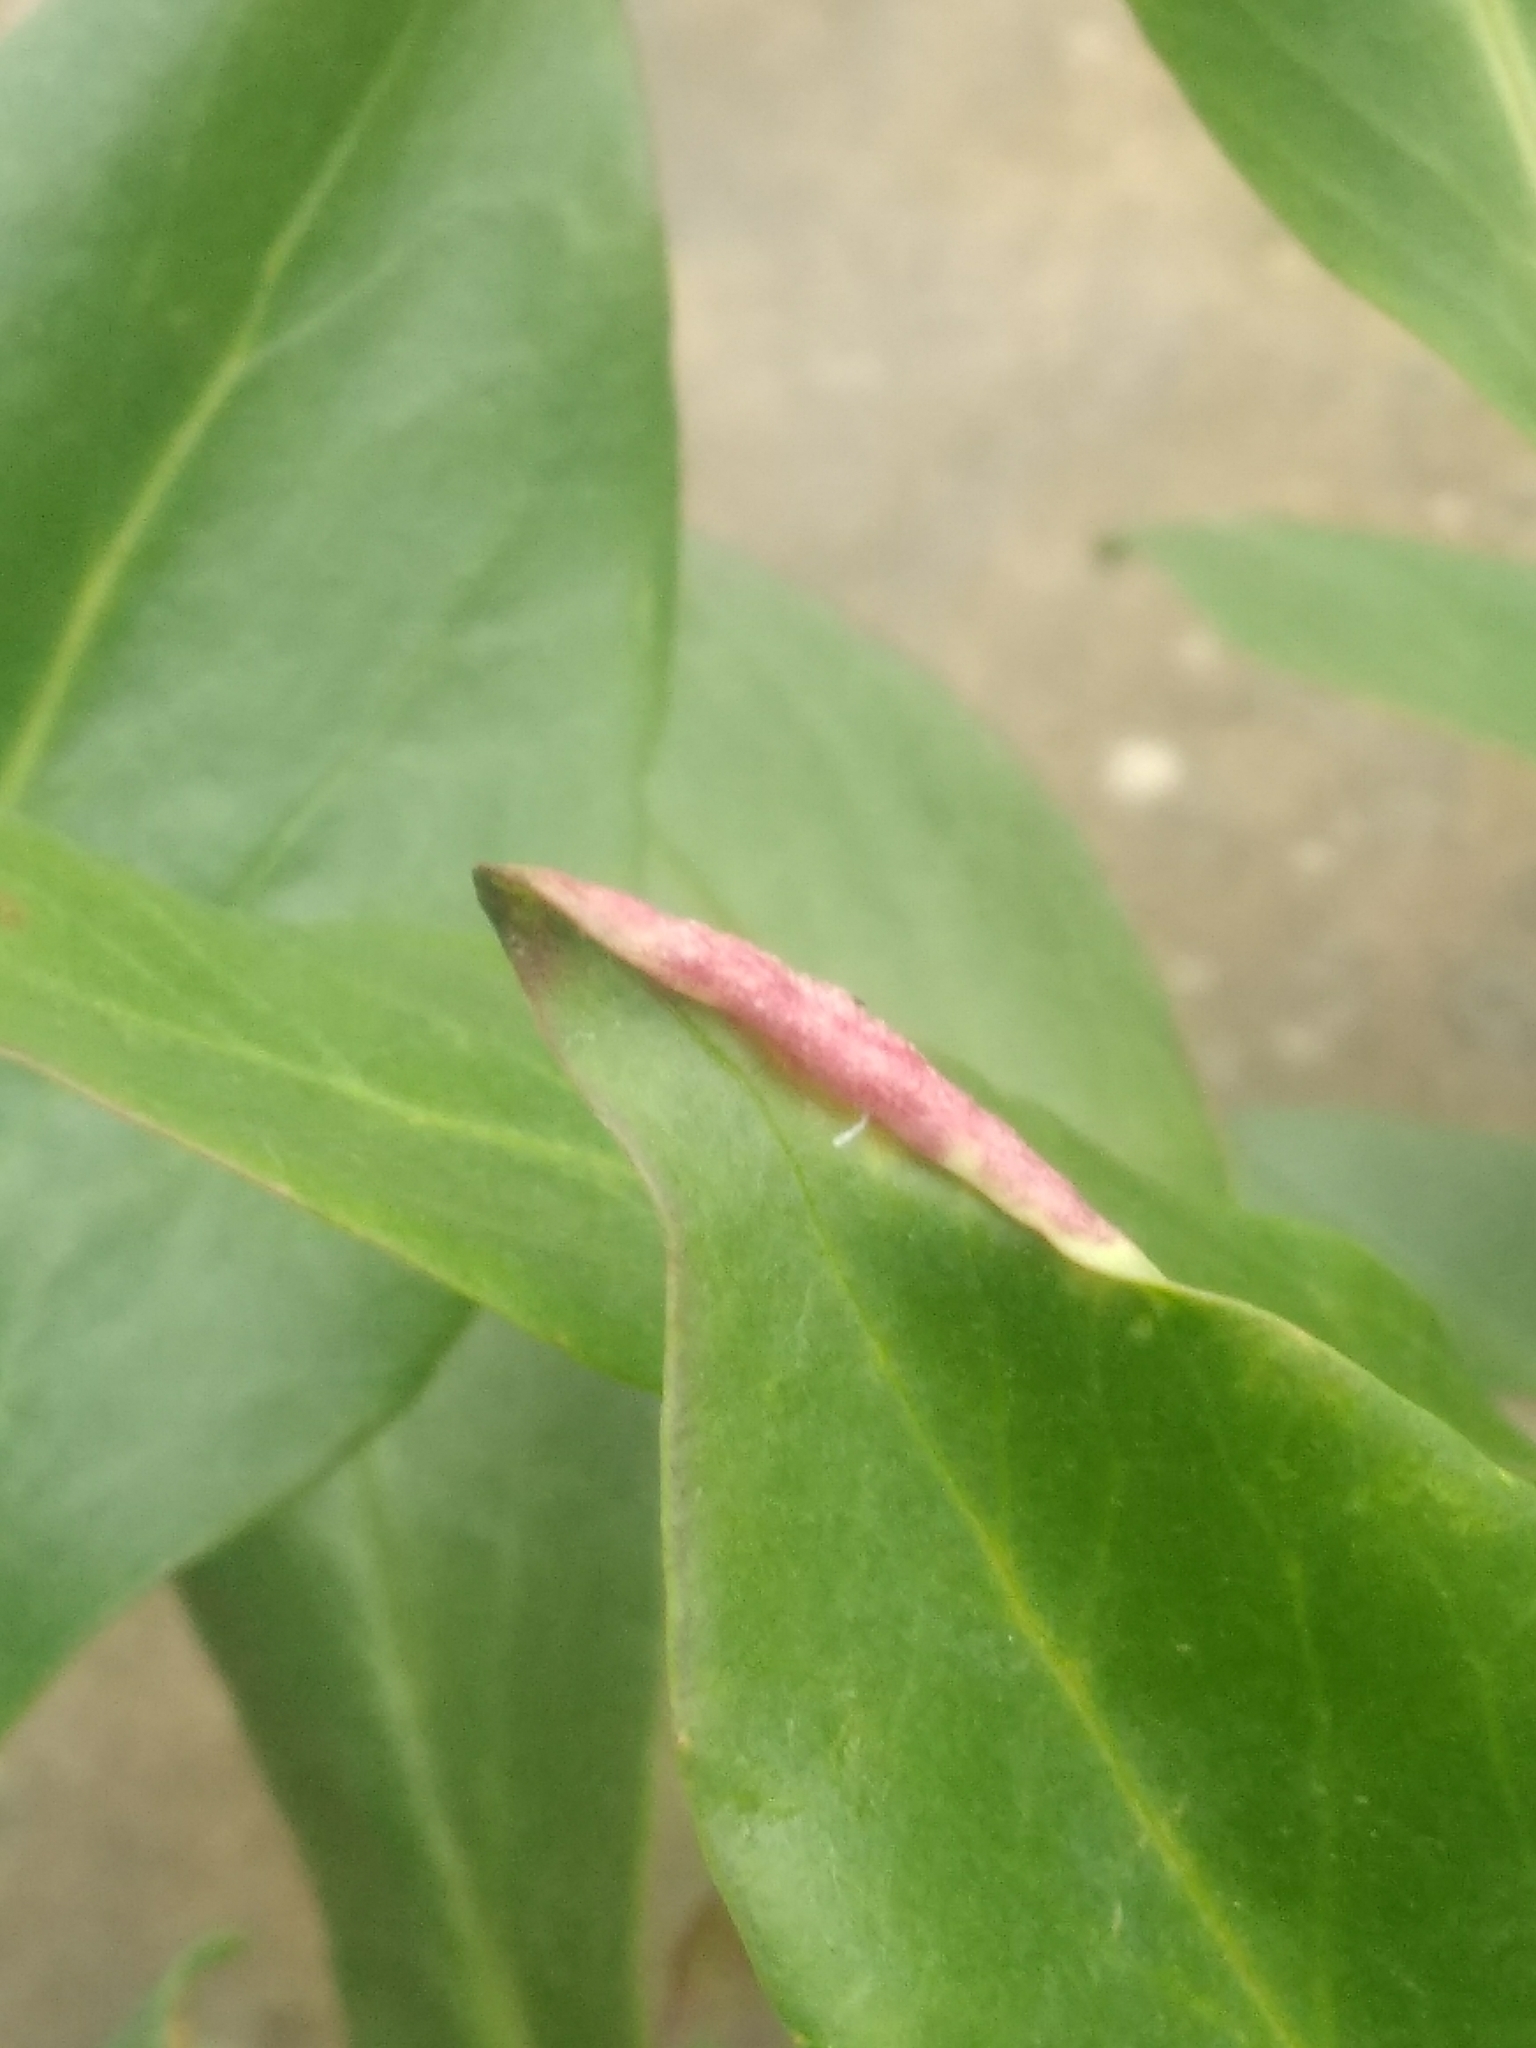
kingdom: Animalia
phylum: Arthropoda
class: Insecta
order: Hemiptera
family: Triozidae
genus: Trioza
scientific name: Trioza centranthi
